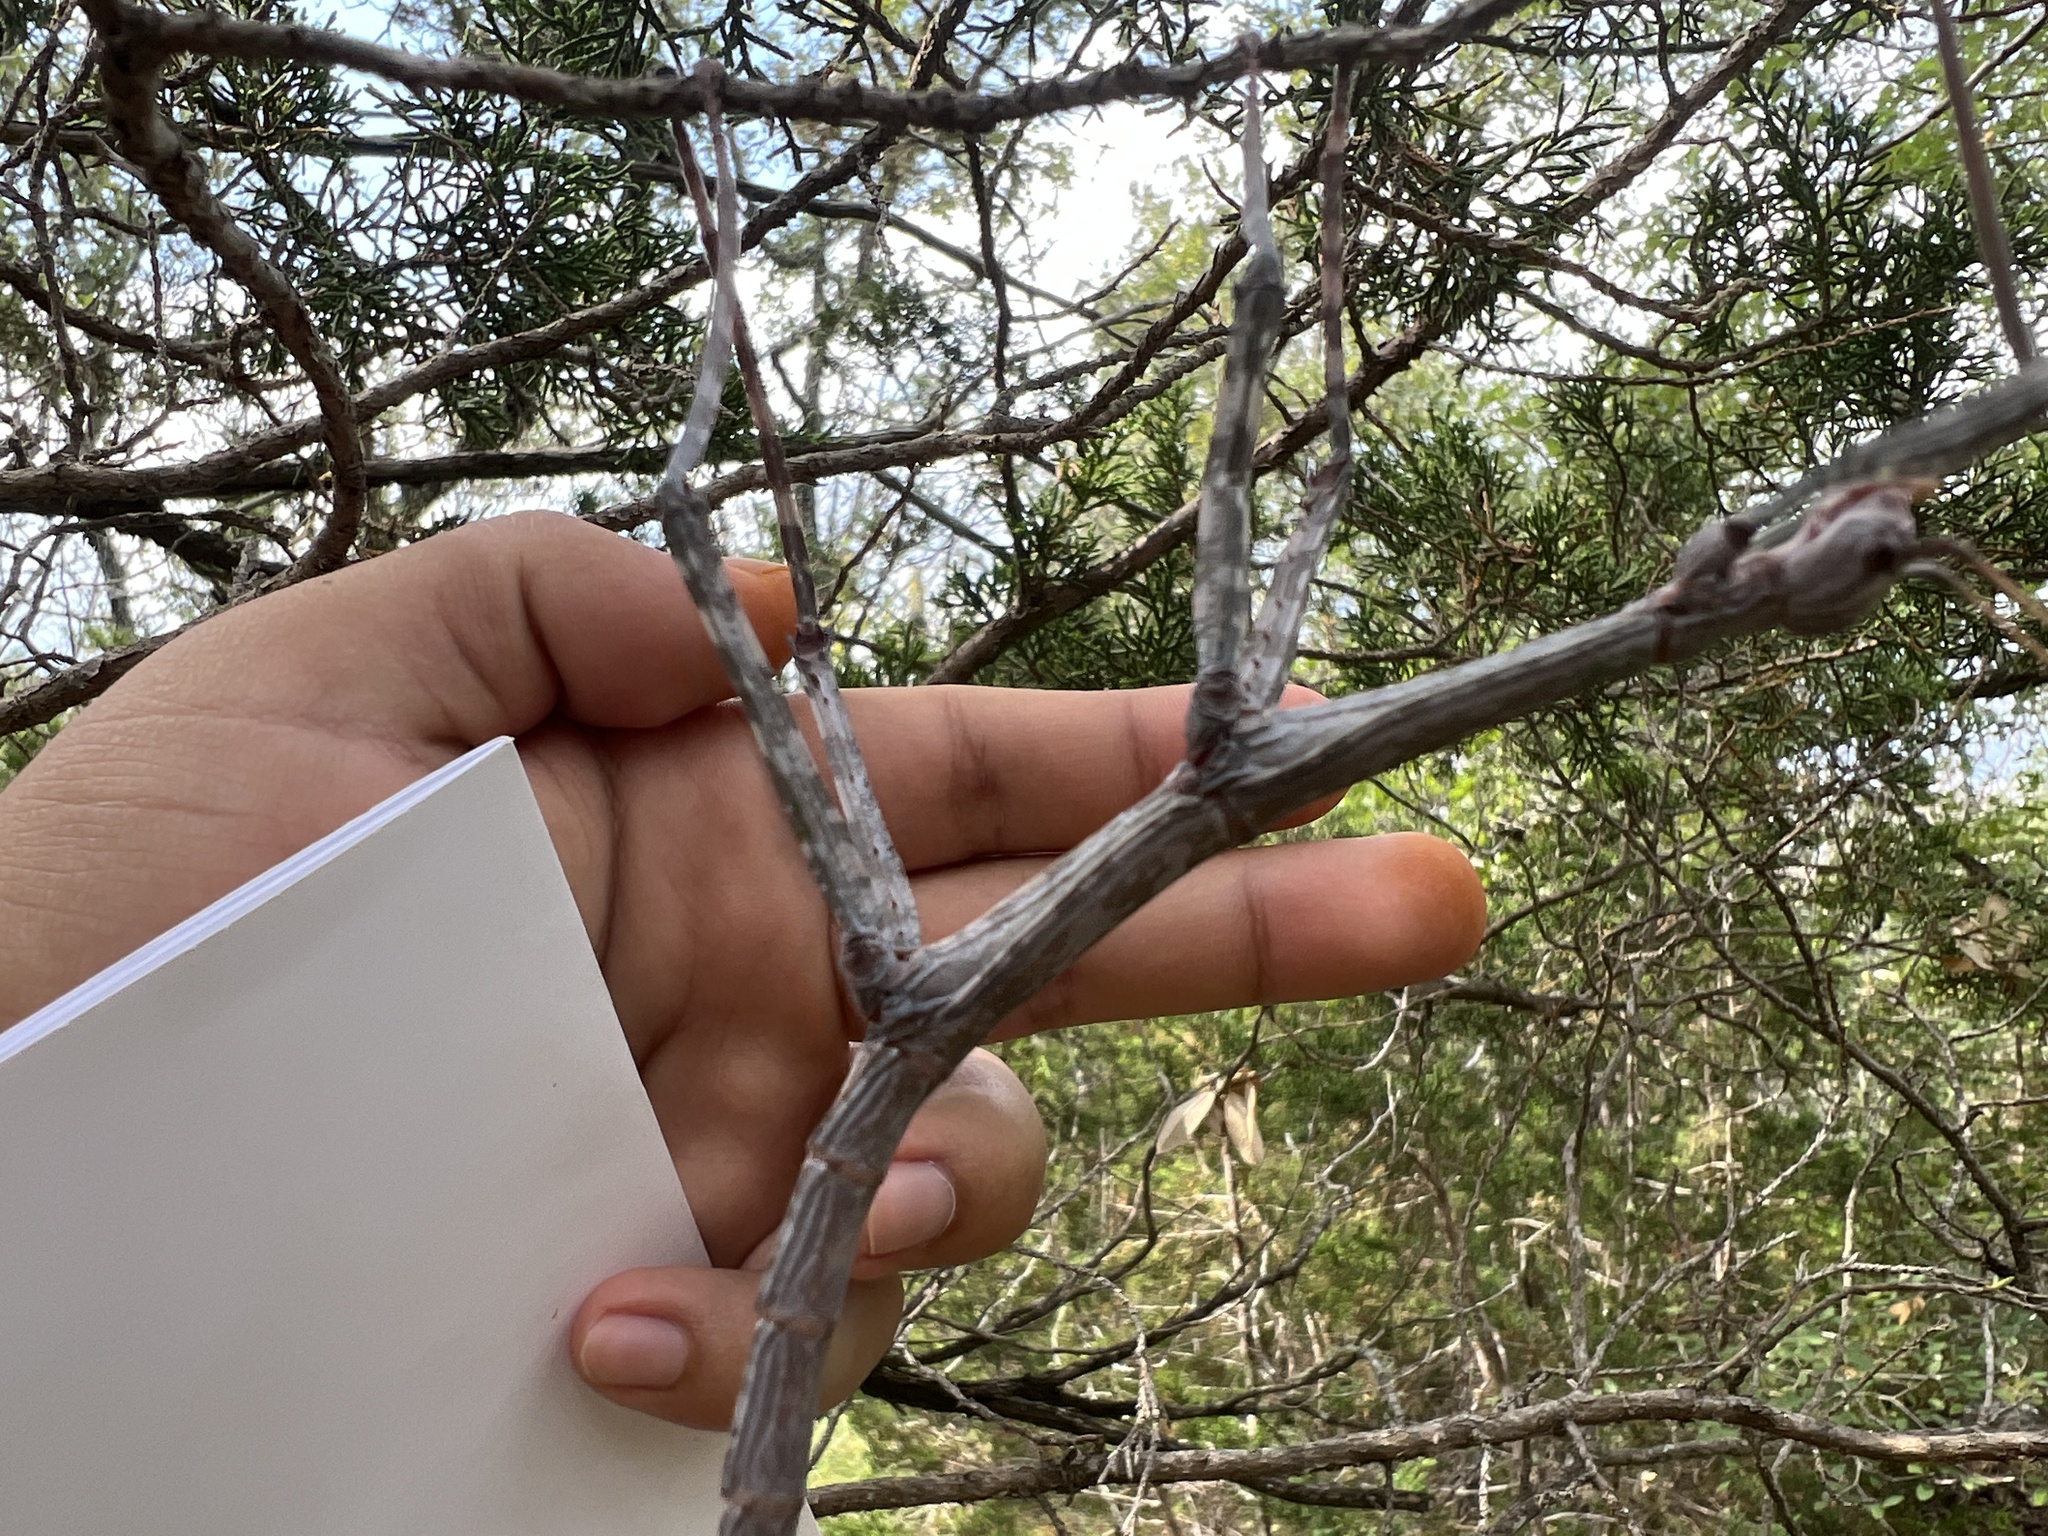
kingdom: Animalia
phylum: Arthropoda
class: Insecta
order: Phasmida
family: Diapheromeridae
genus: Megaphasma
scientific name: Megaphasma denticrus
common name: Giant walkingstick
